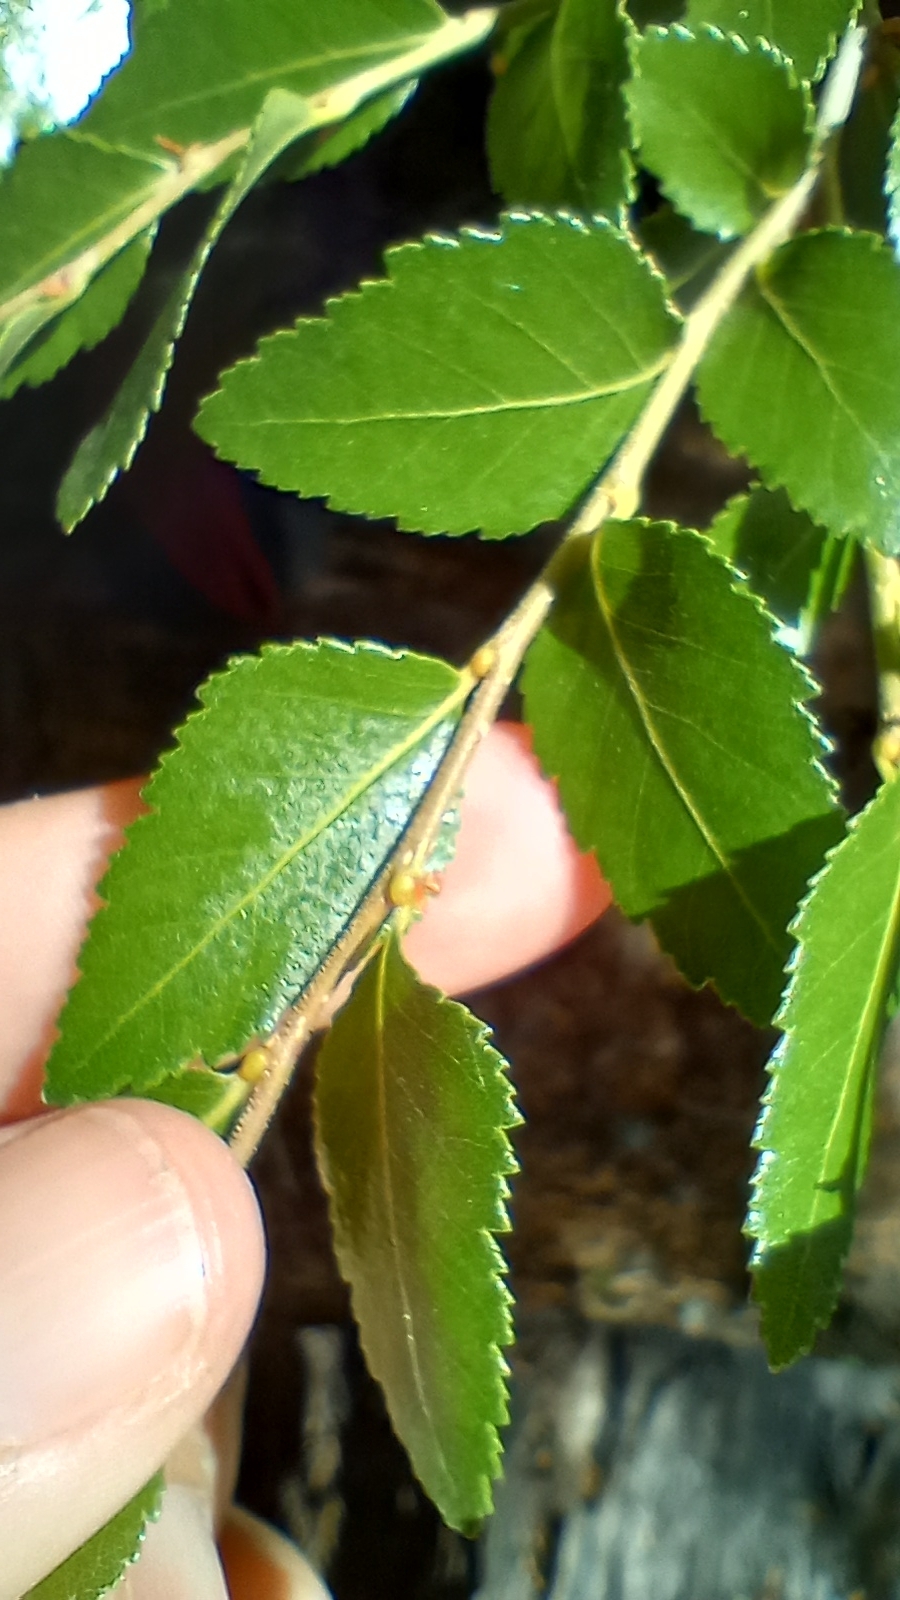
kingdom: Plantae
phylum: Tracheophyta
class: Magnoliopsida
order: Fagales
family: Nothofagaceae
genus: Nothofagus
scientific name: Nothofagus dombeyi
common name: Coigue
